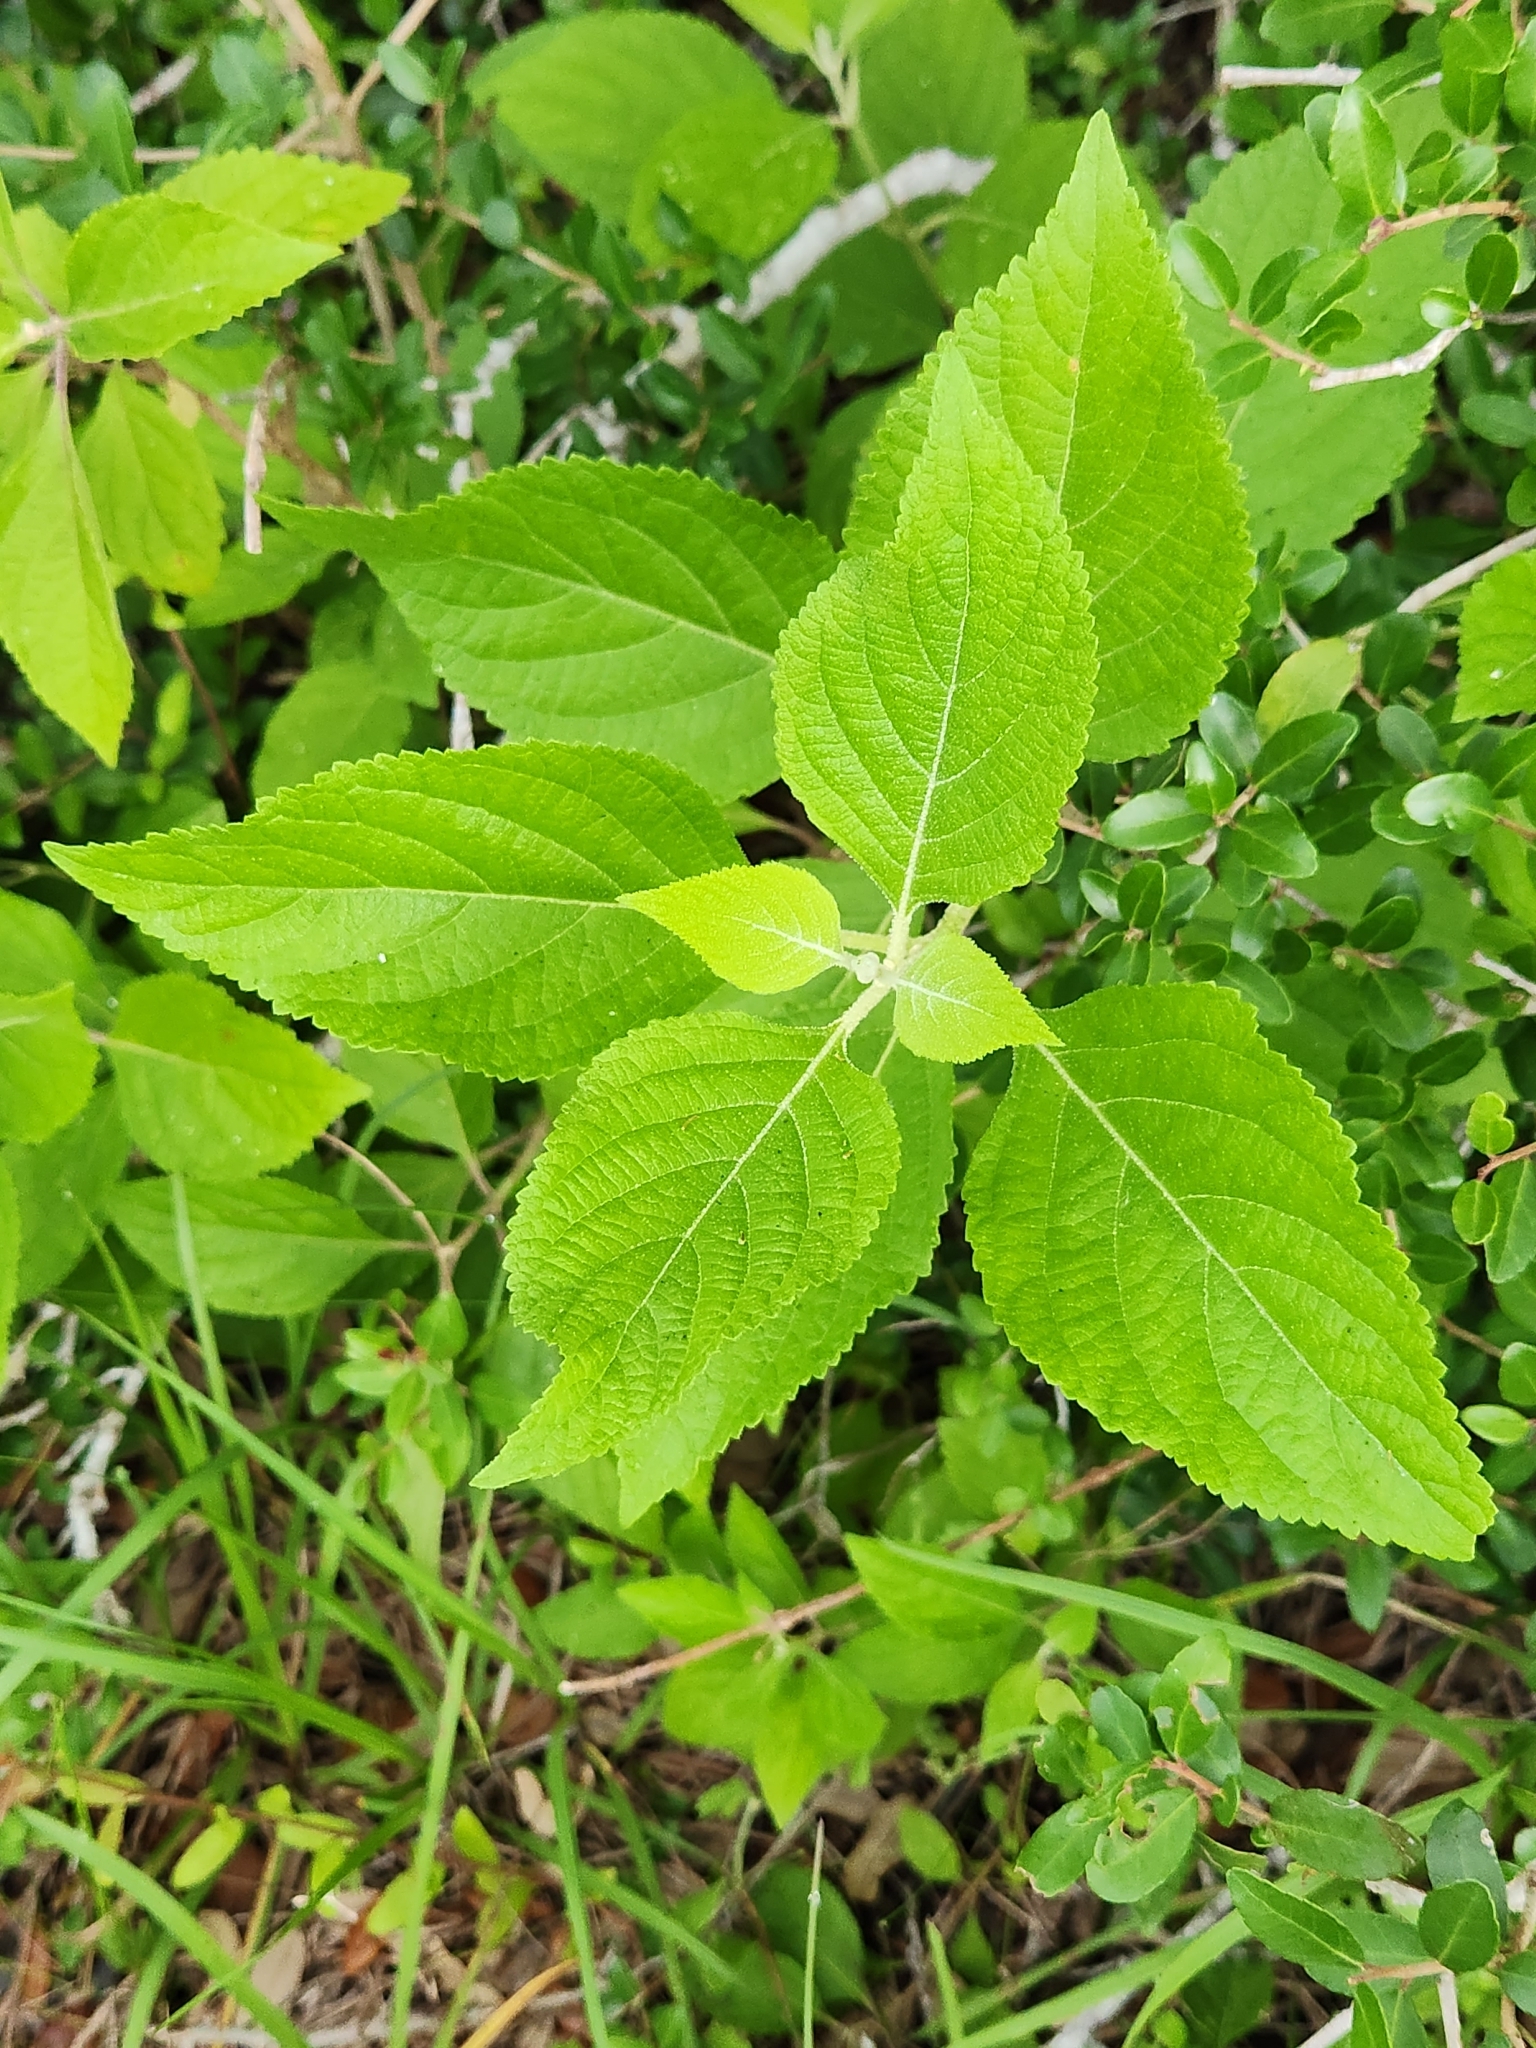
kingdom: Plantae
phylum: Tracheophyta
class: Magnoliopsida
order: Lamiales
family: Lamiaceae
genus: Callicarpa
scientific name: Callicarpa americana
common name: American beautyberry
